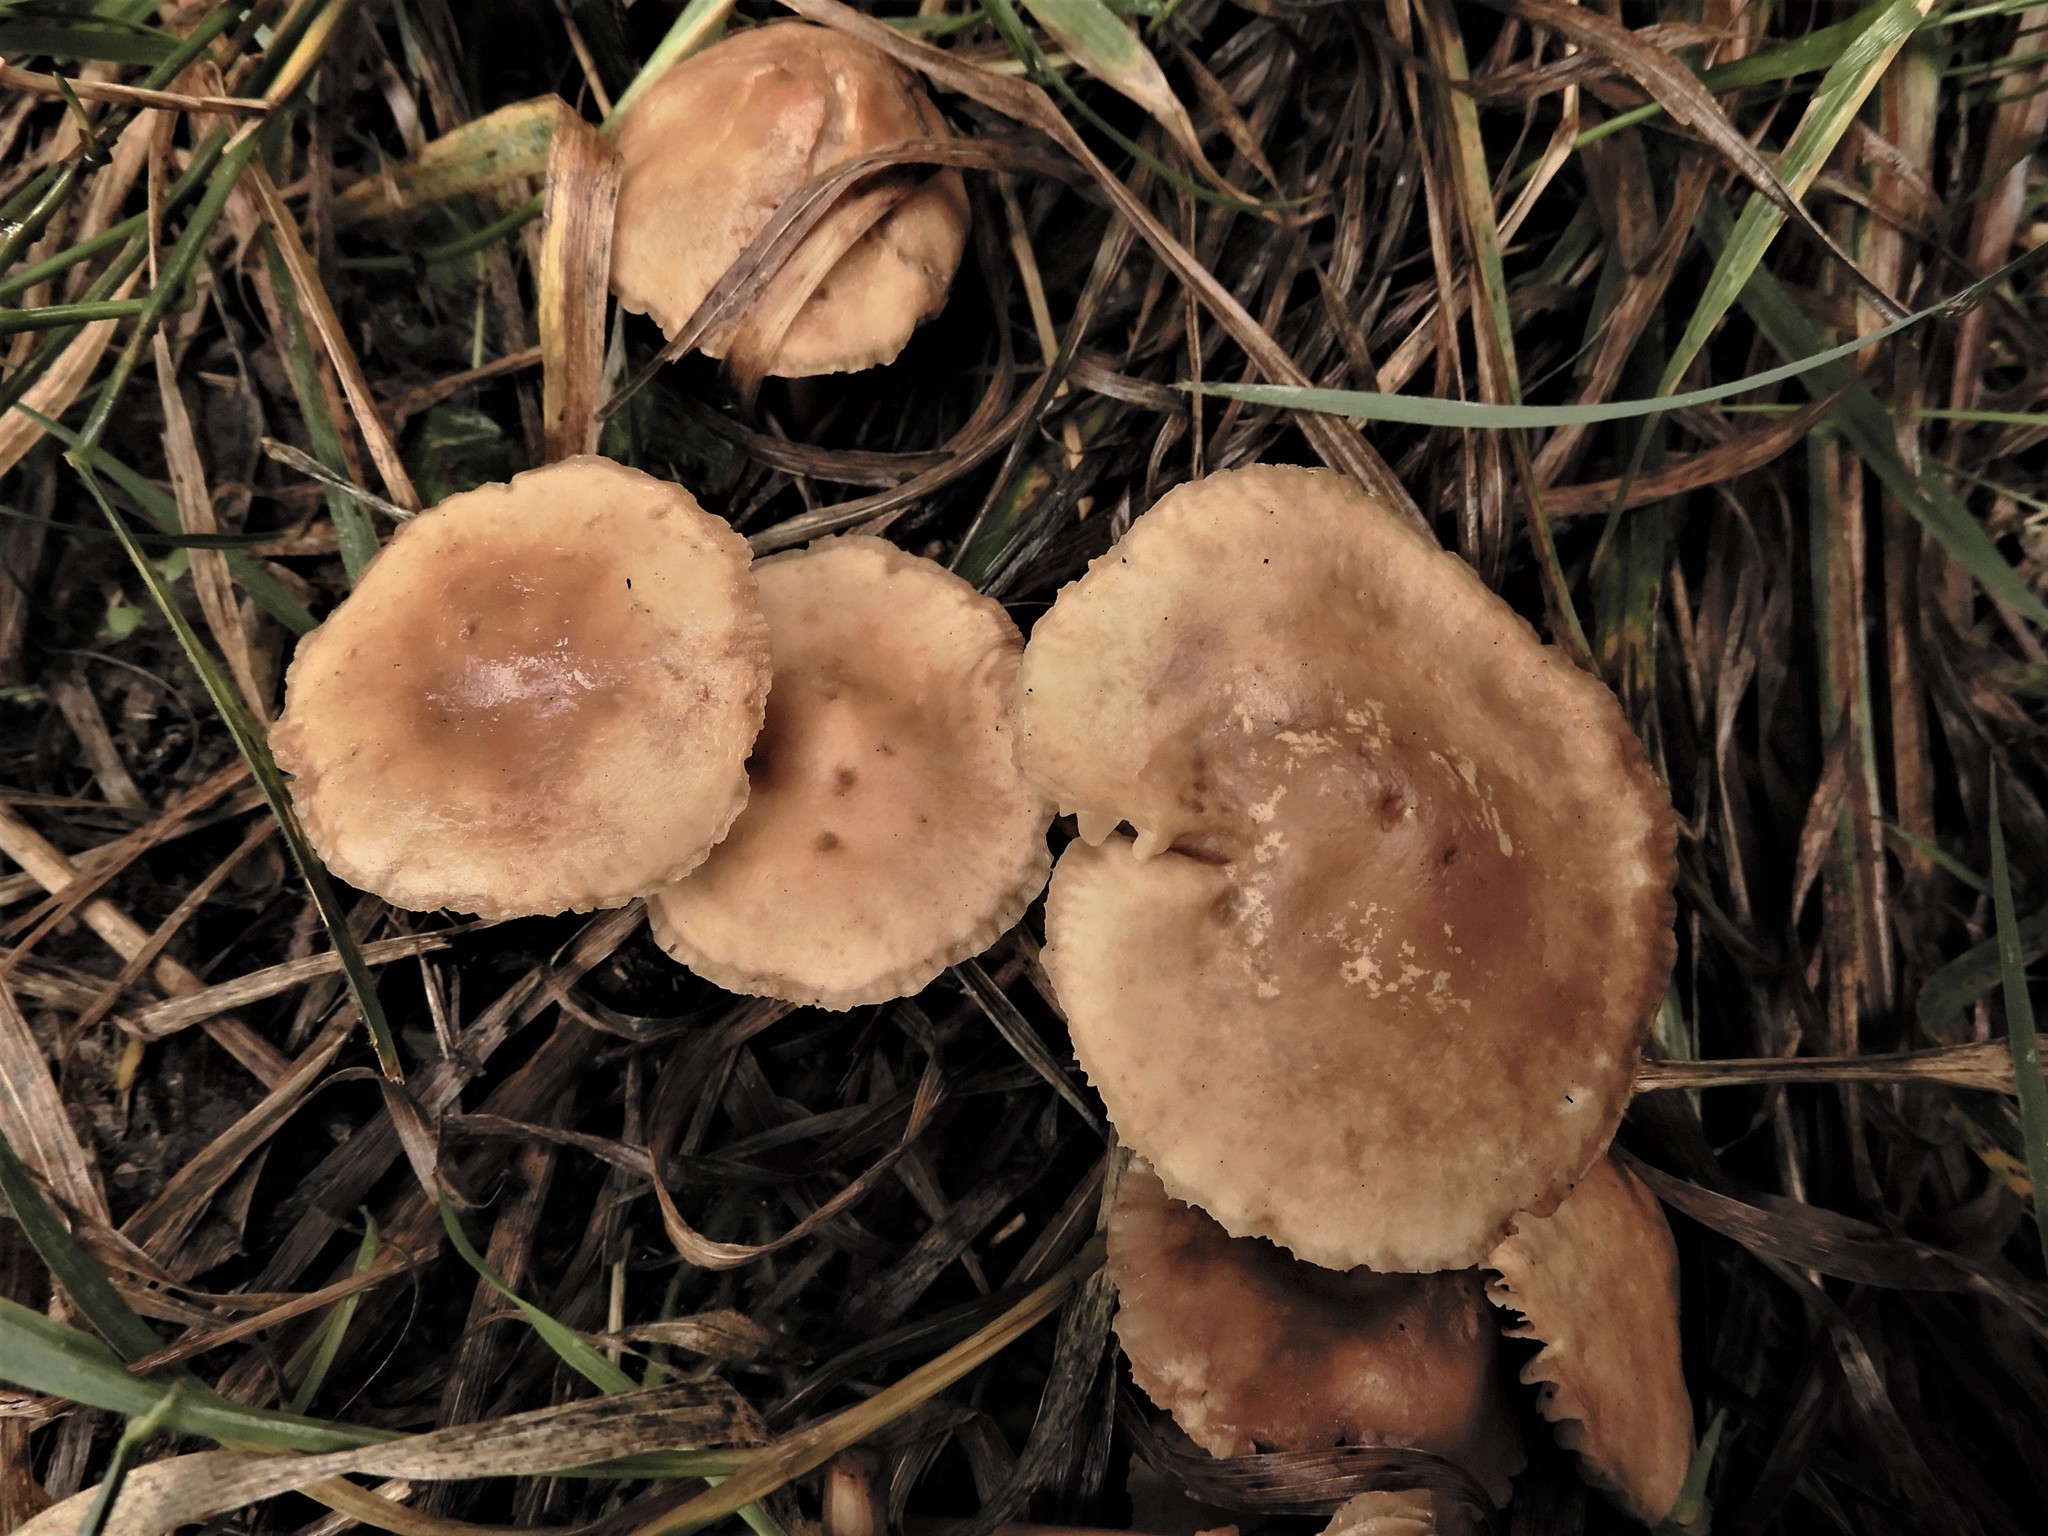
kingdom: Fungi
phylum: Basidiomycota
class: Agaricomycetes
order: Agaricales
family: Marasmiaceae
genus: Marasmius
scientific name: Marasmius oreades
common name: Fairy ring champignon
